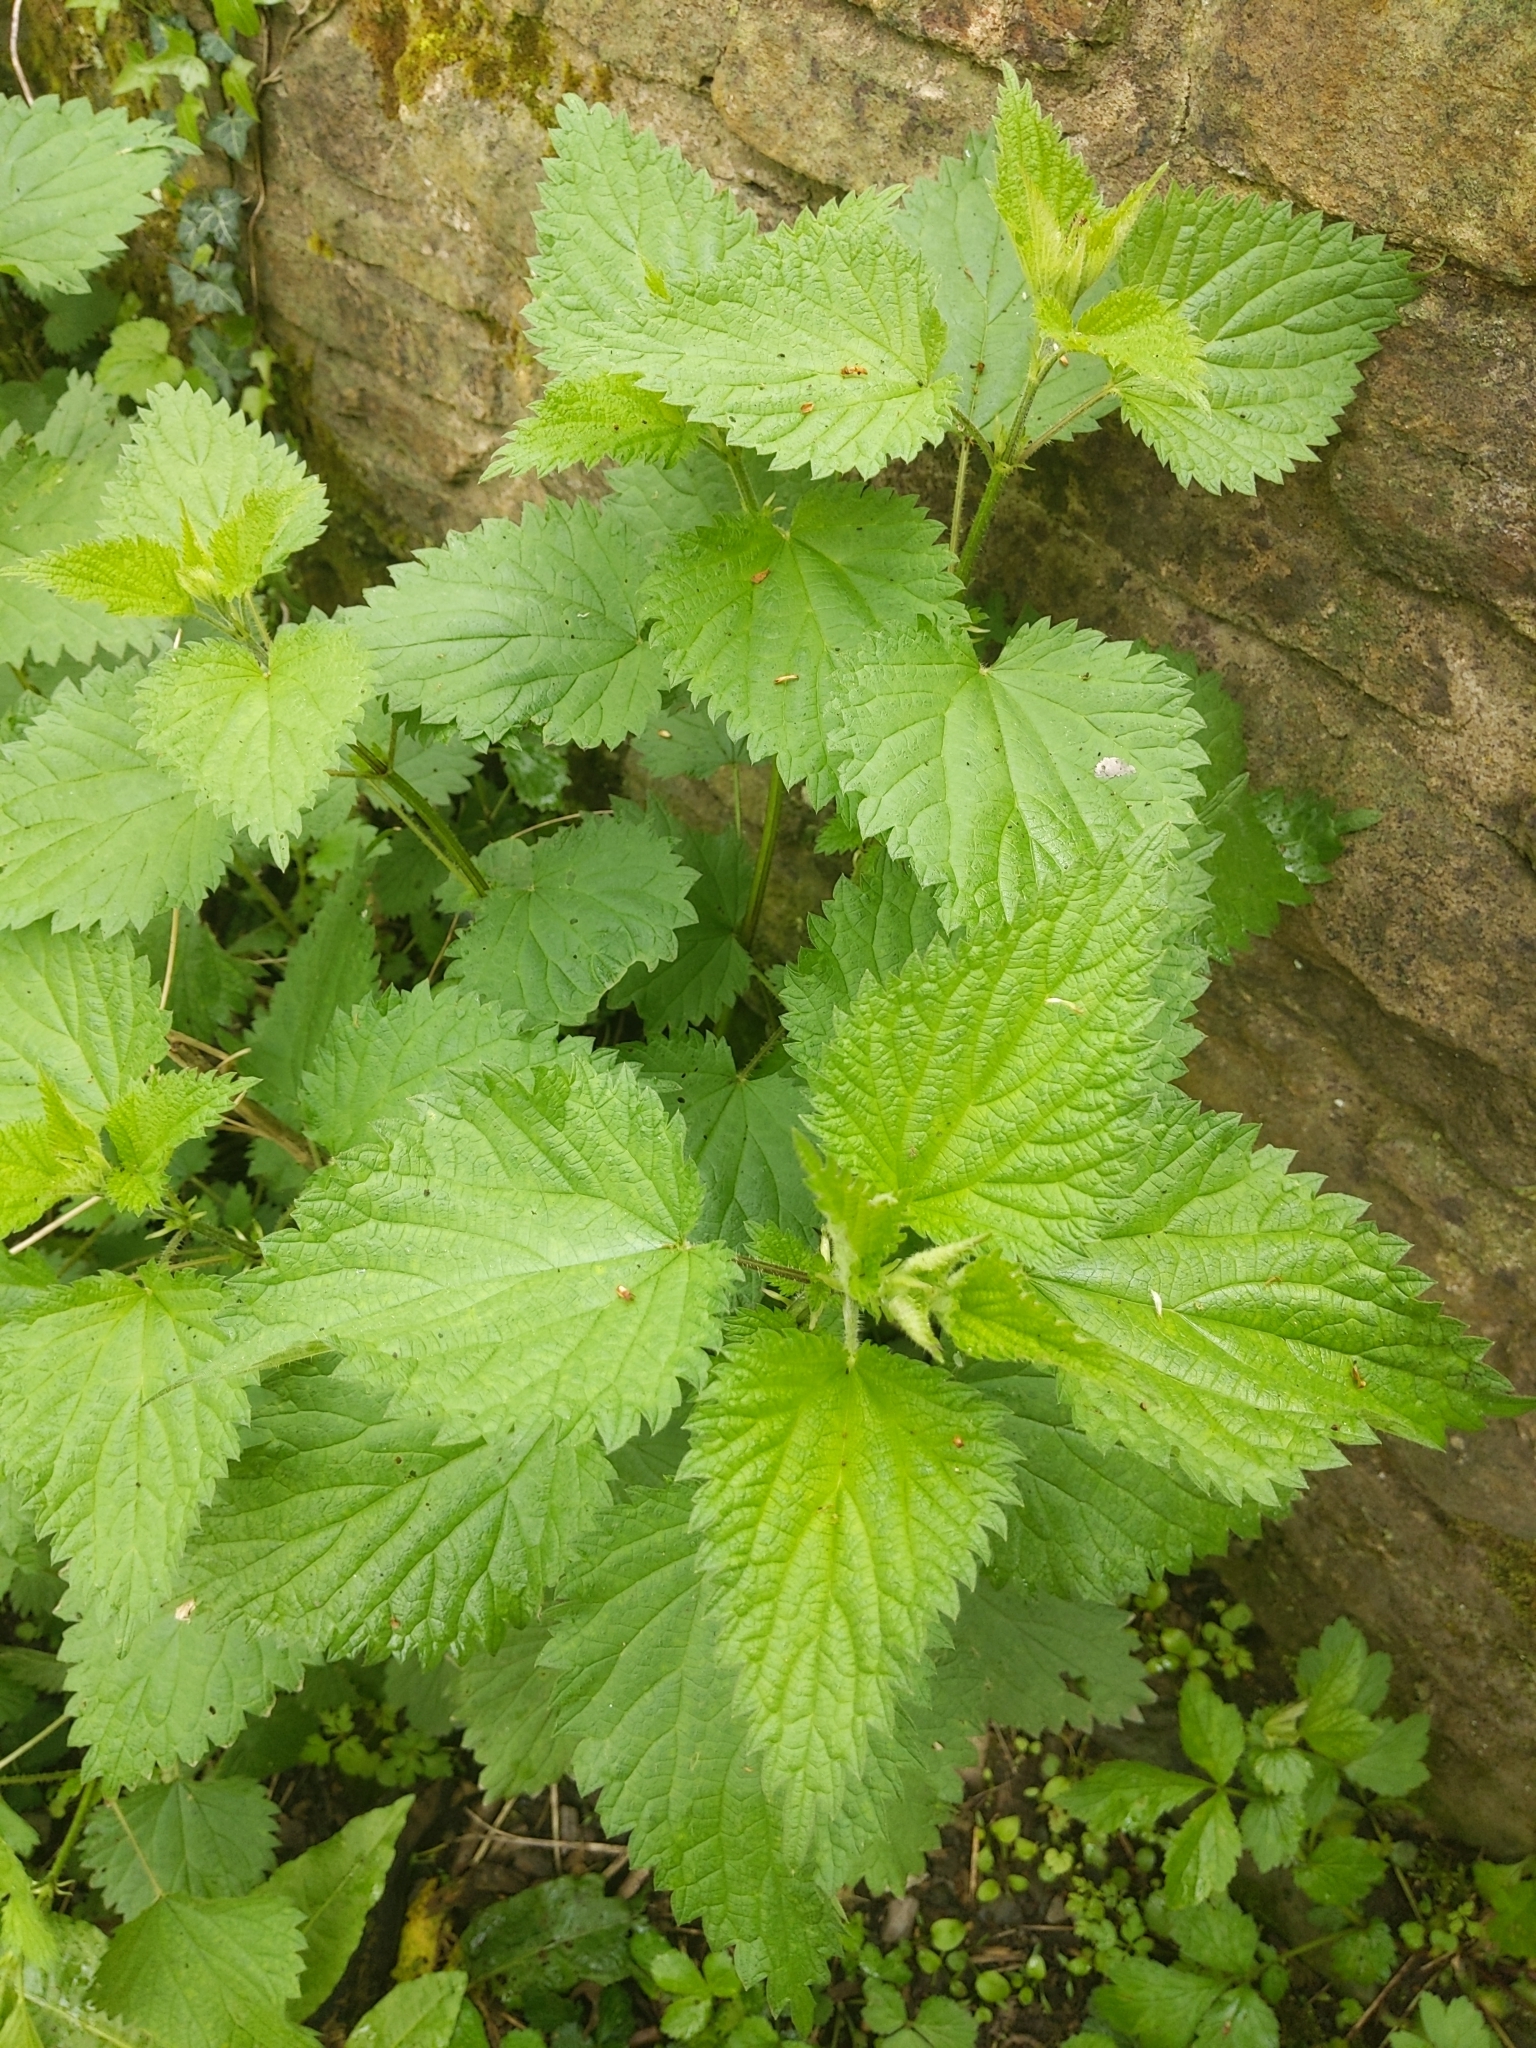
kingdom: Plantae
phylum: Tracheophyta
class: Magnoliopsida
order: Rosales
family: Urticaceae
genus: Urtica
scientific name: Urtica dioica
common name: Common nettle
